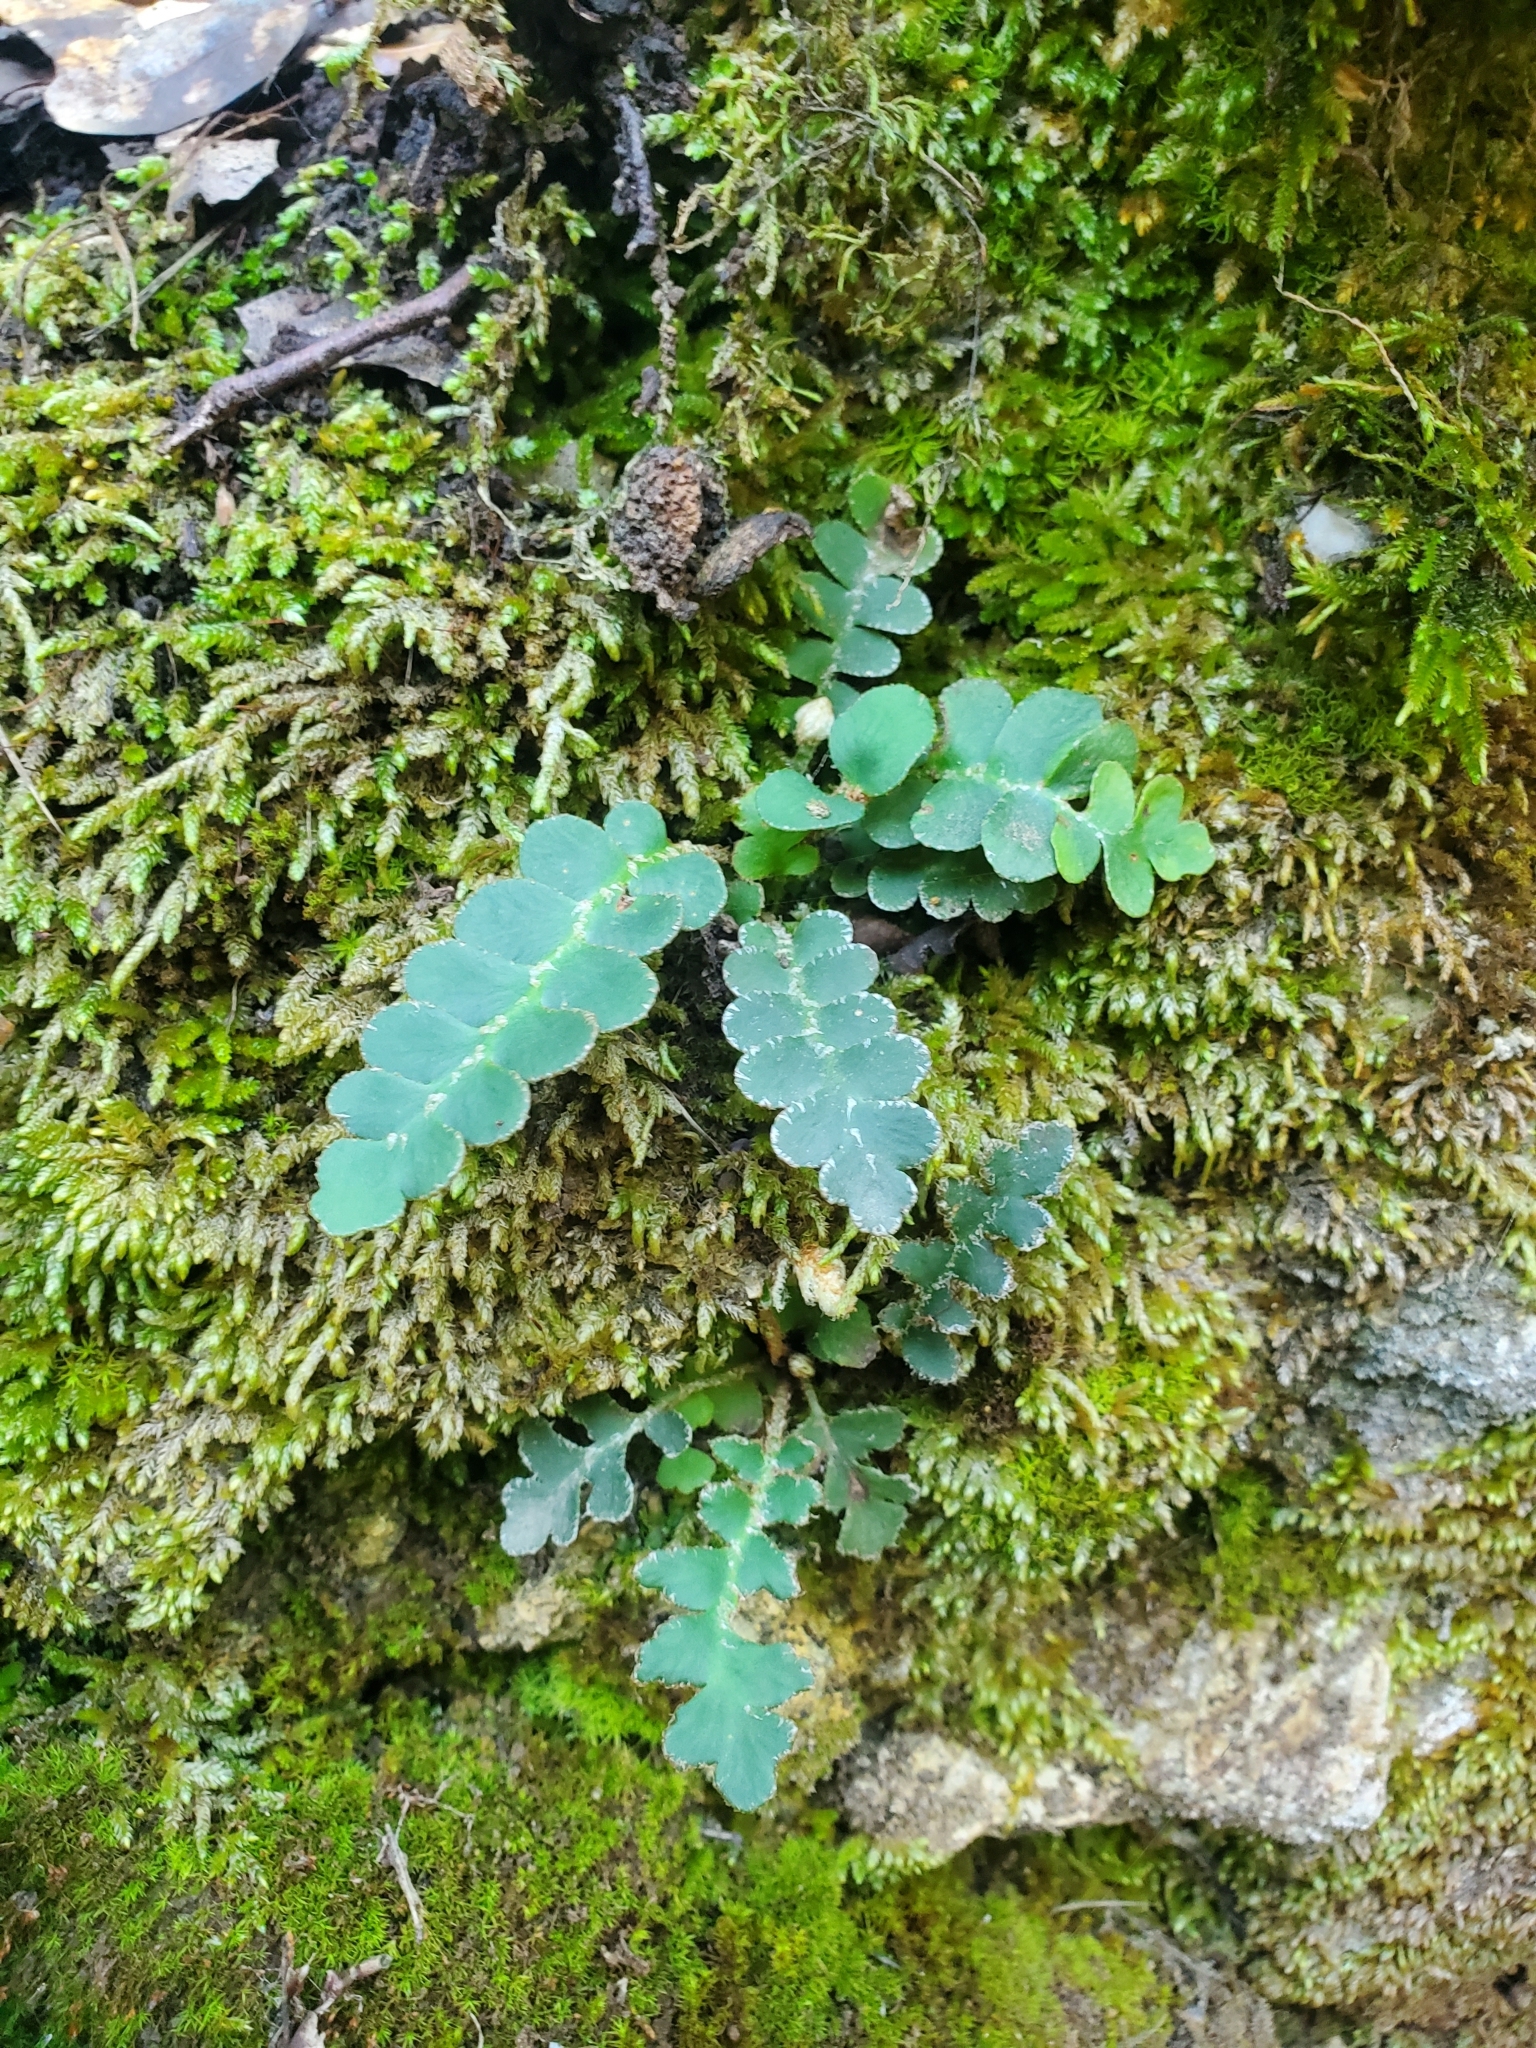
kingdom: Plantae
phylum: Tracheophyta
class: Polypodiopsida
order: Polypodiales
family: Aspleniaceae
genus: Asplenium
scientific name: Asplenium ceterach
